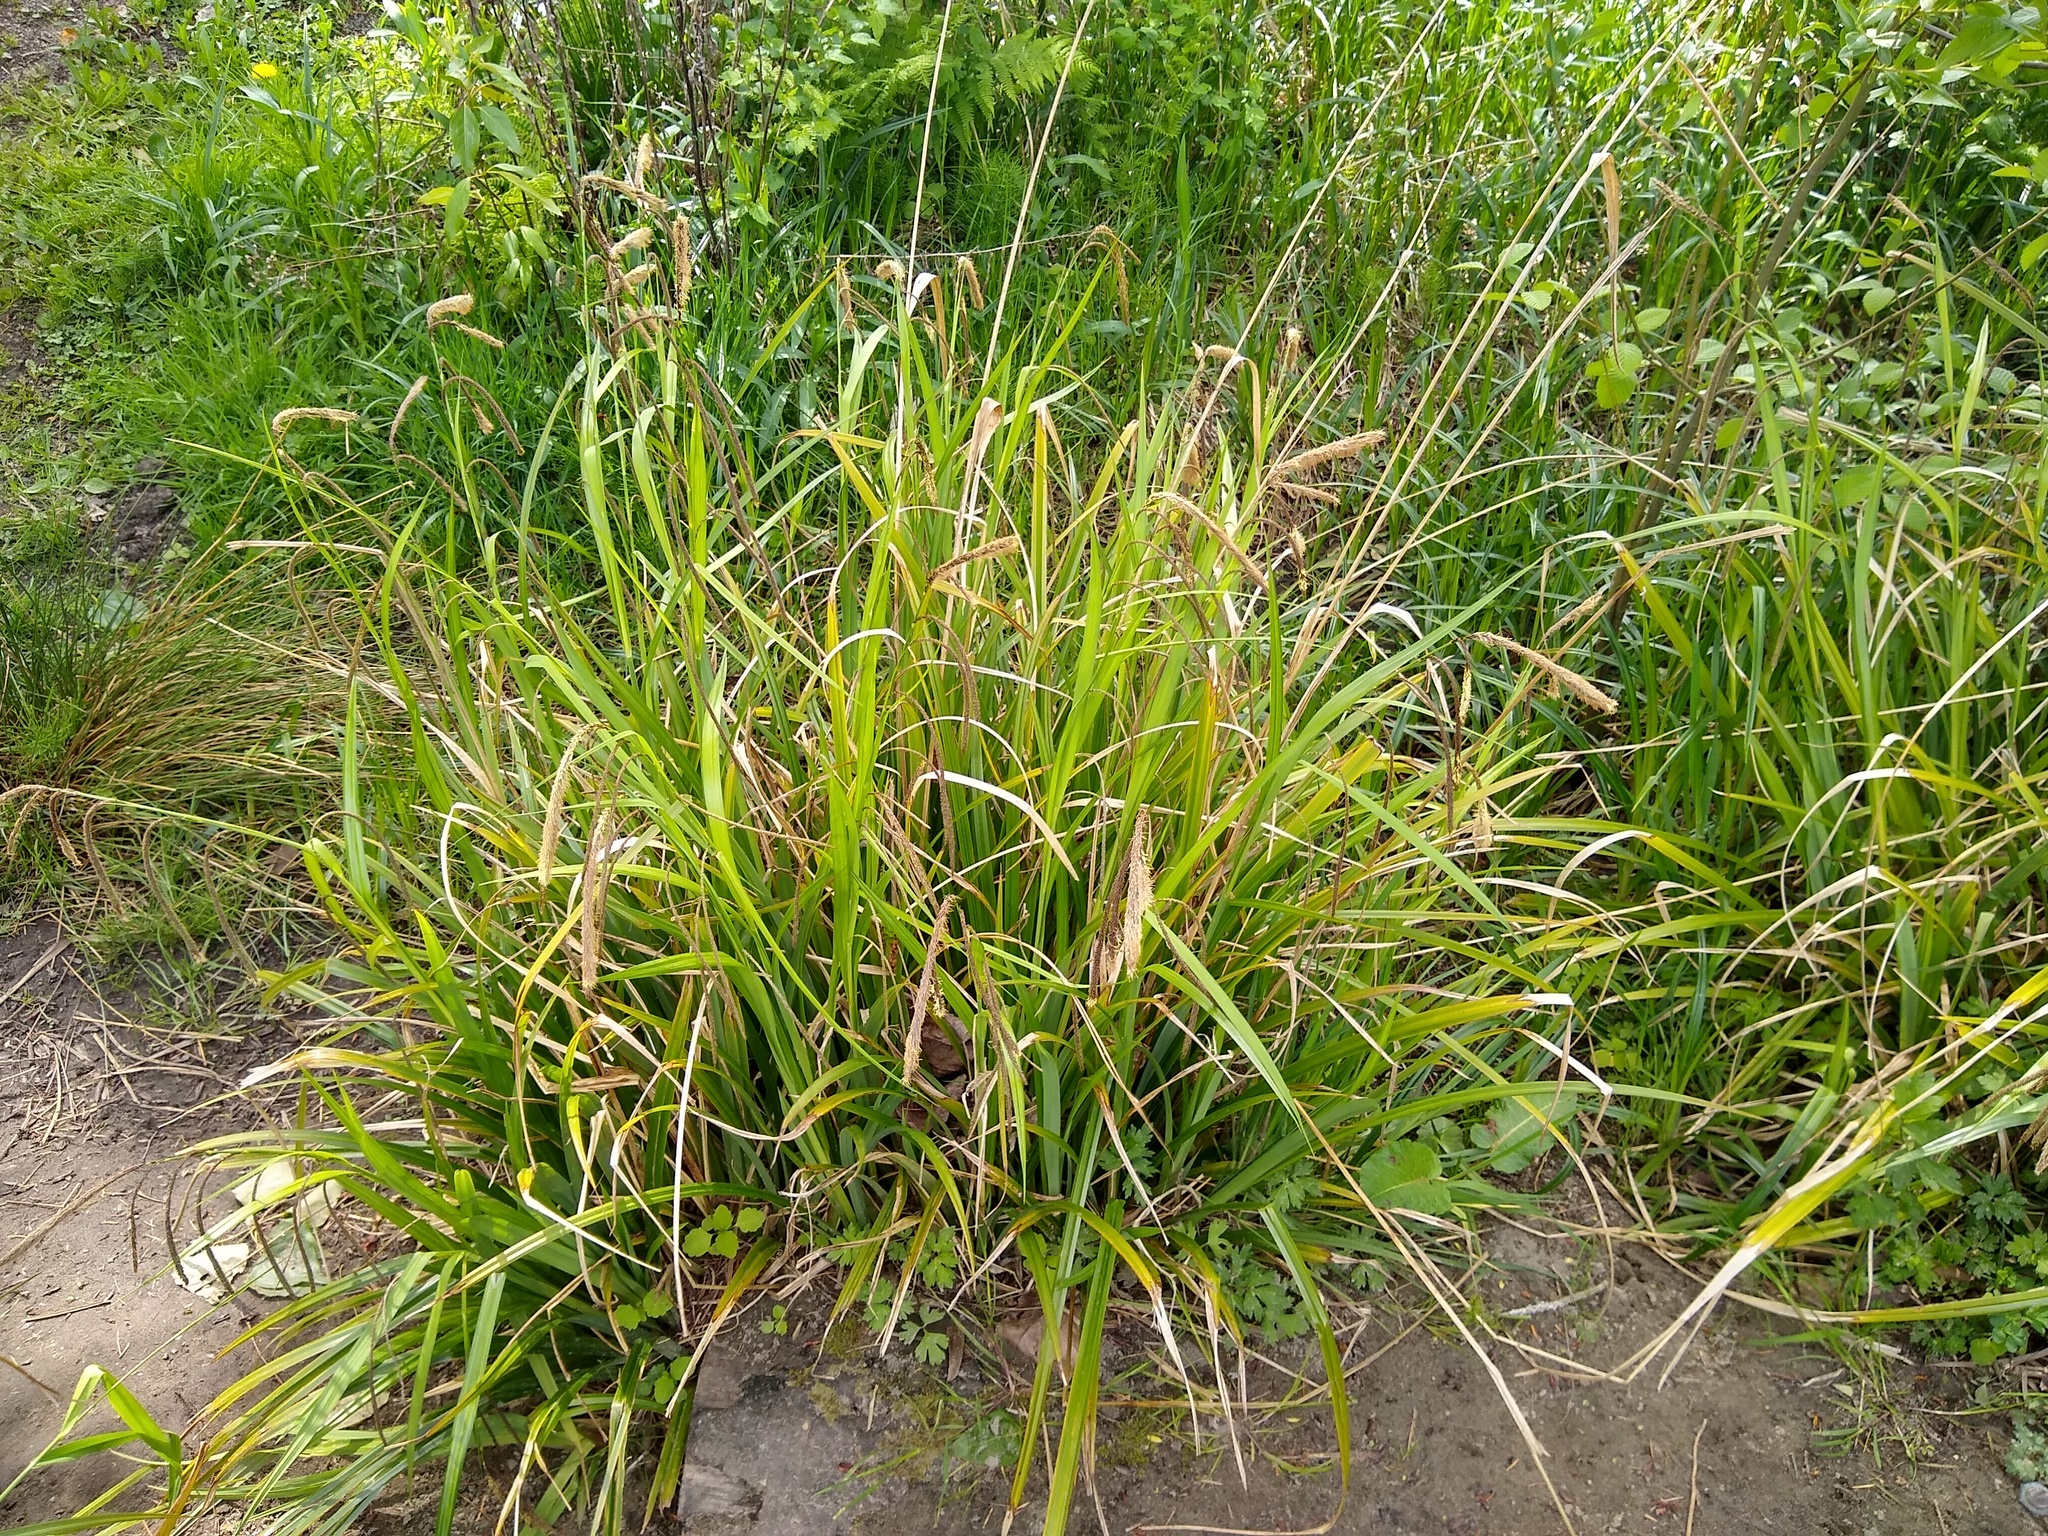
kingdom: Plantae
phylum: Tracheophyta
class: Liliopsida
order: Poales
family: Cyperaceae
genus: Carex
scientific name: Carex pendula
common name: Pendulous sedge
